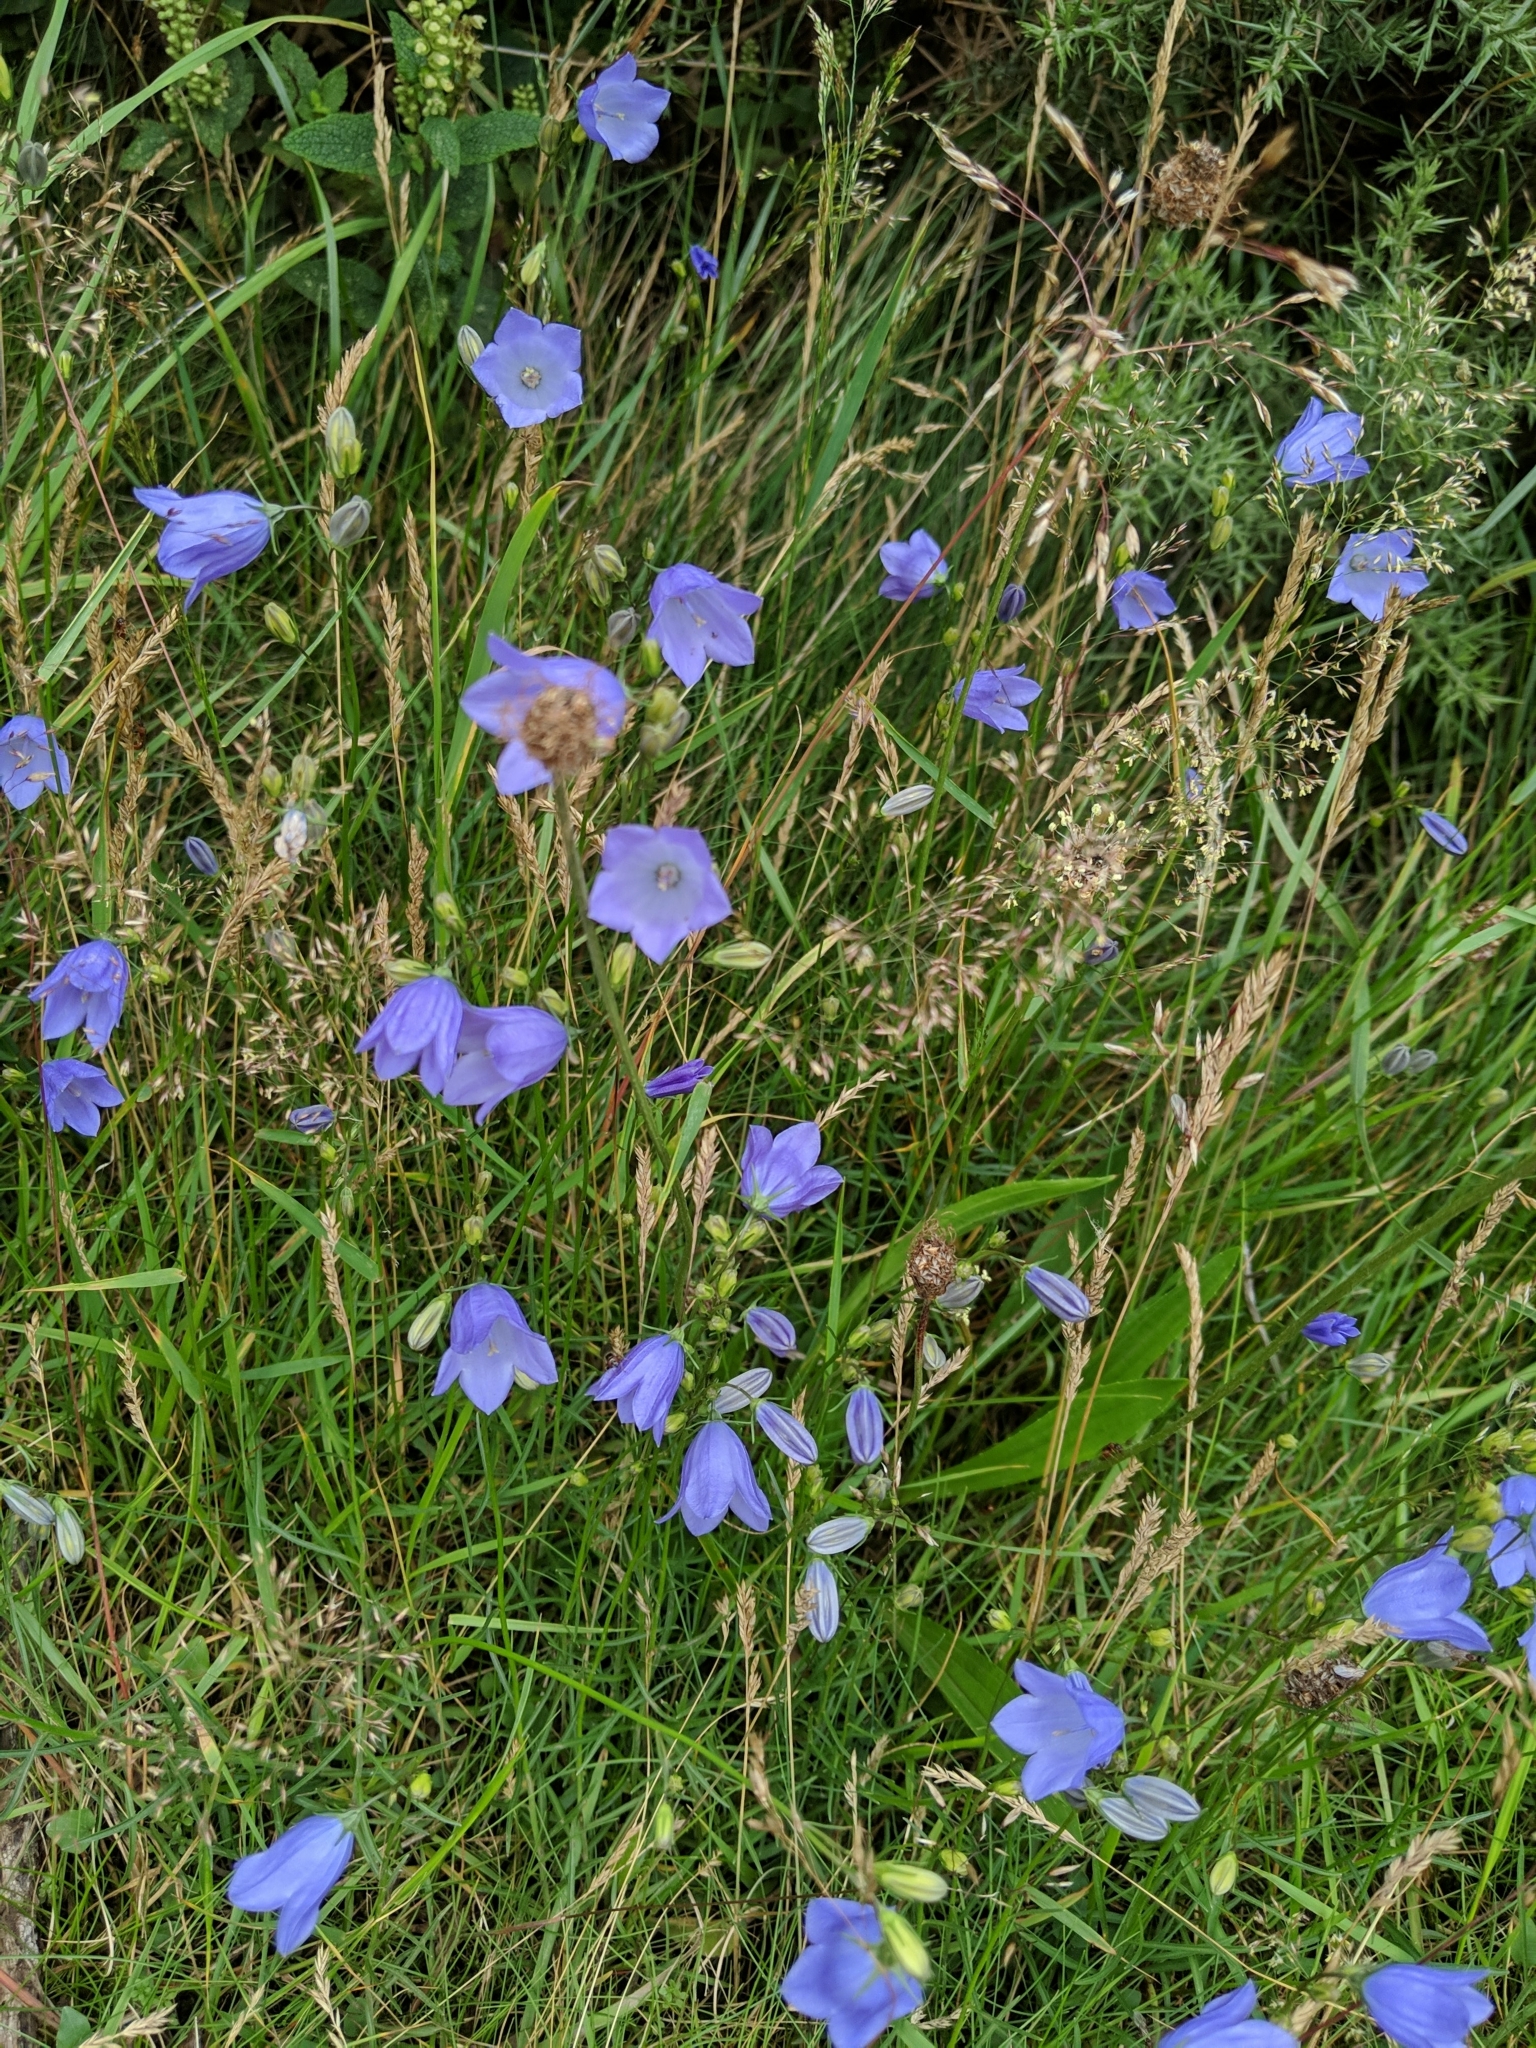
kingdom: Plantae
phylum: Tracheophyta
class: Magnoliopsida
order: Asterales
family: Campanulaceae
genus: Campanula
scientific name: Campanula rotundifolia
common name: Harebell
